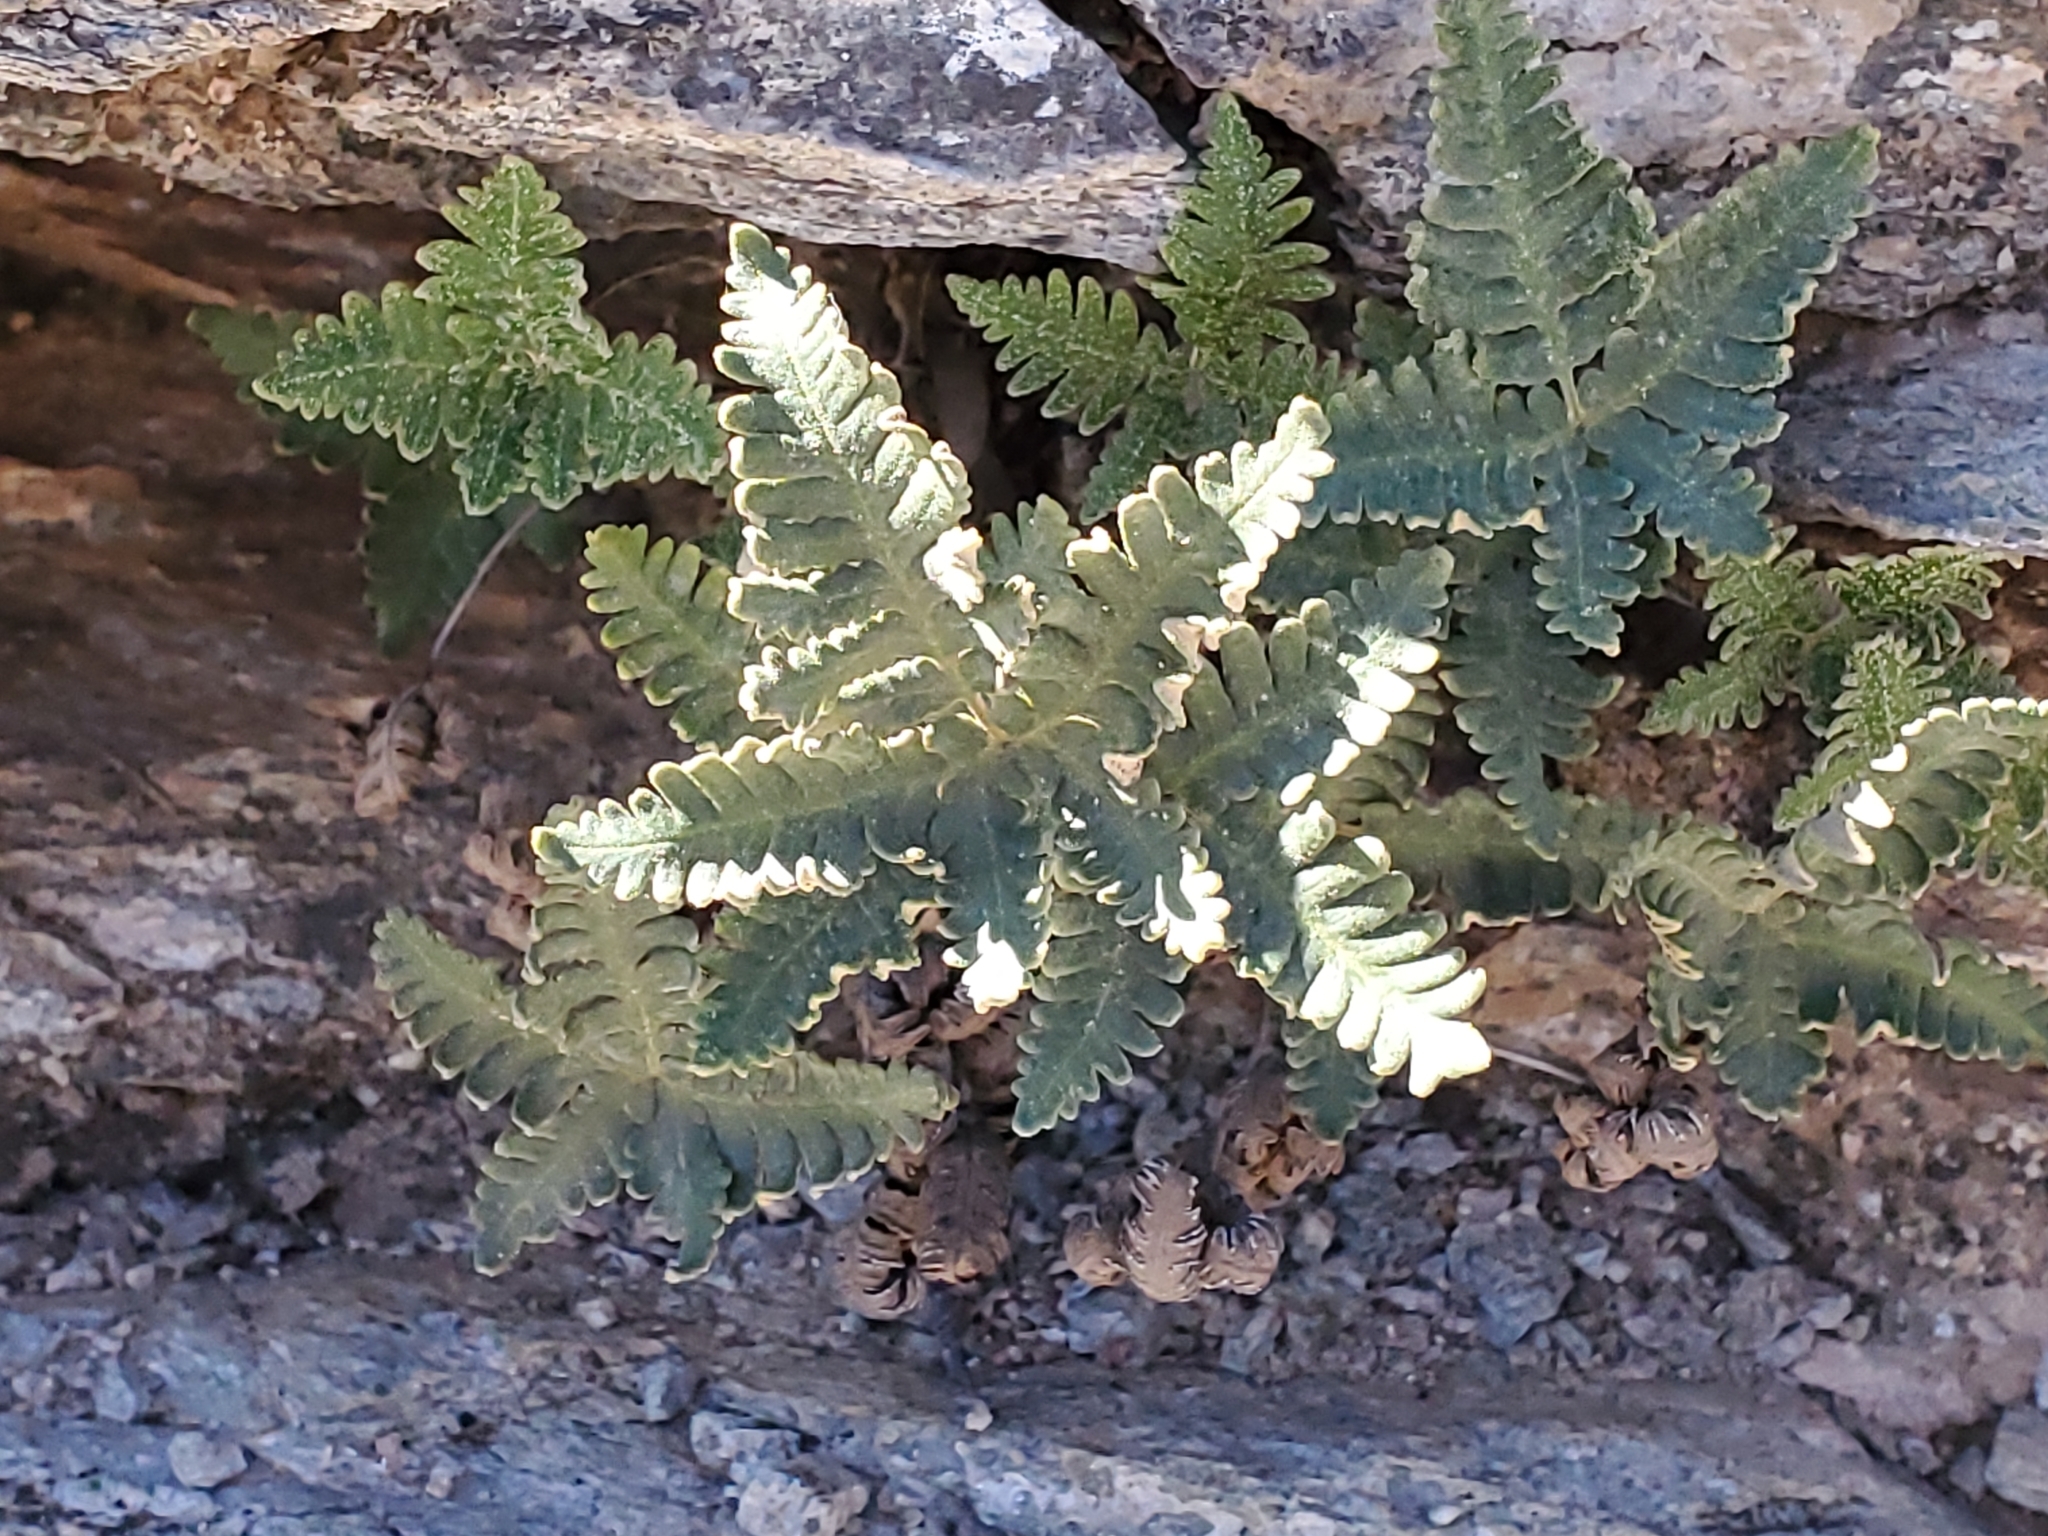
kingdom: Plantae
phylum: Tracheophyta
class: Polypodiopsida
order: Polypodiales
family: Pteridaceae
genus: Notholaena
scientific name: Notholaena standleyi
